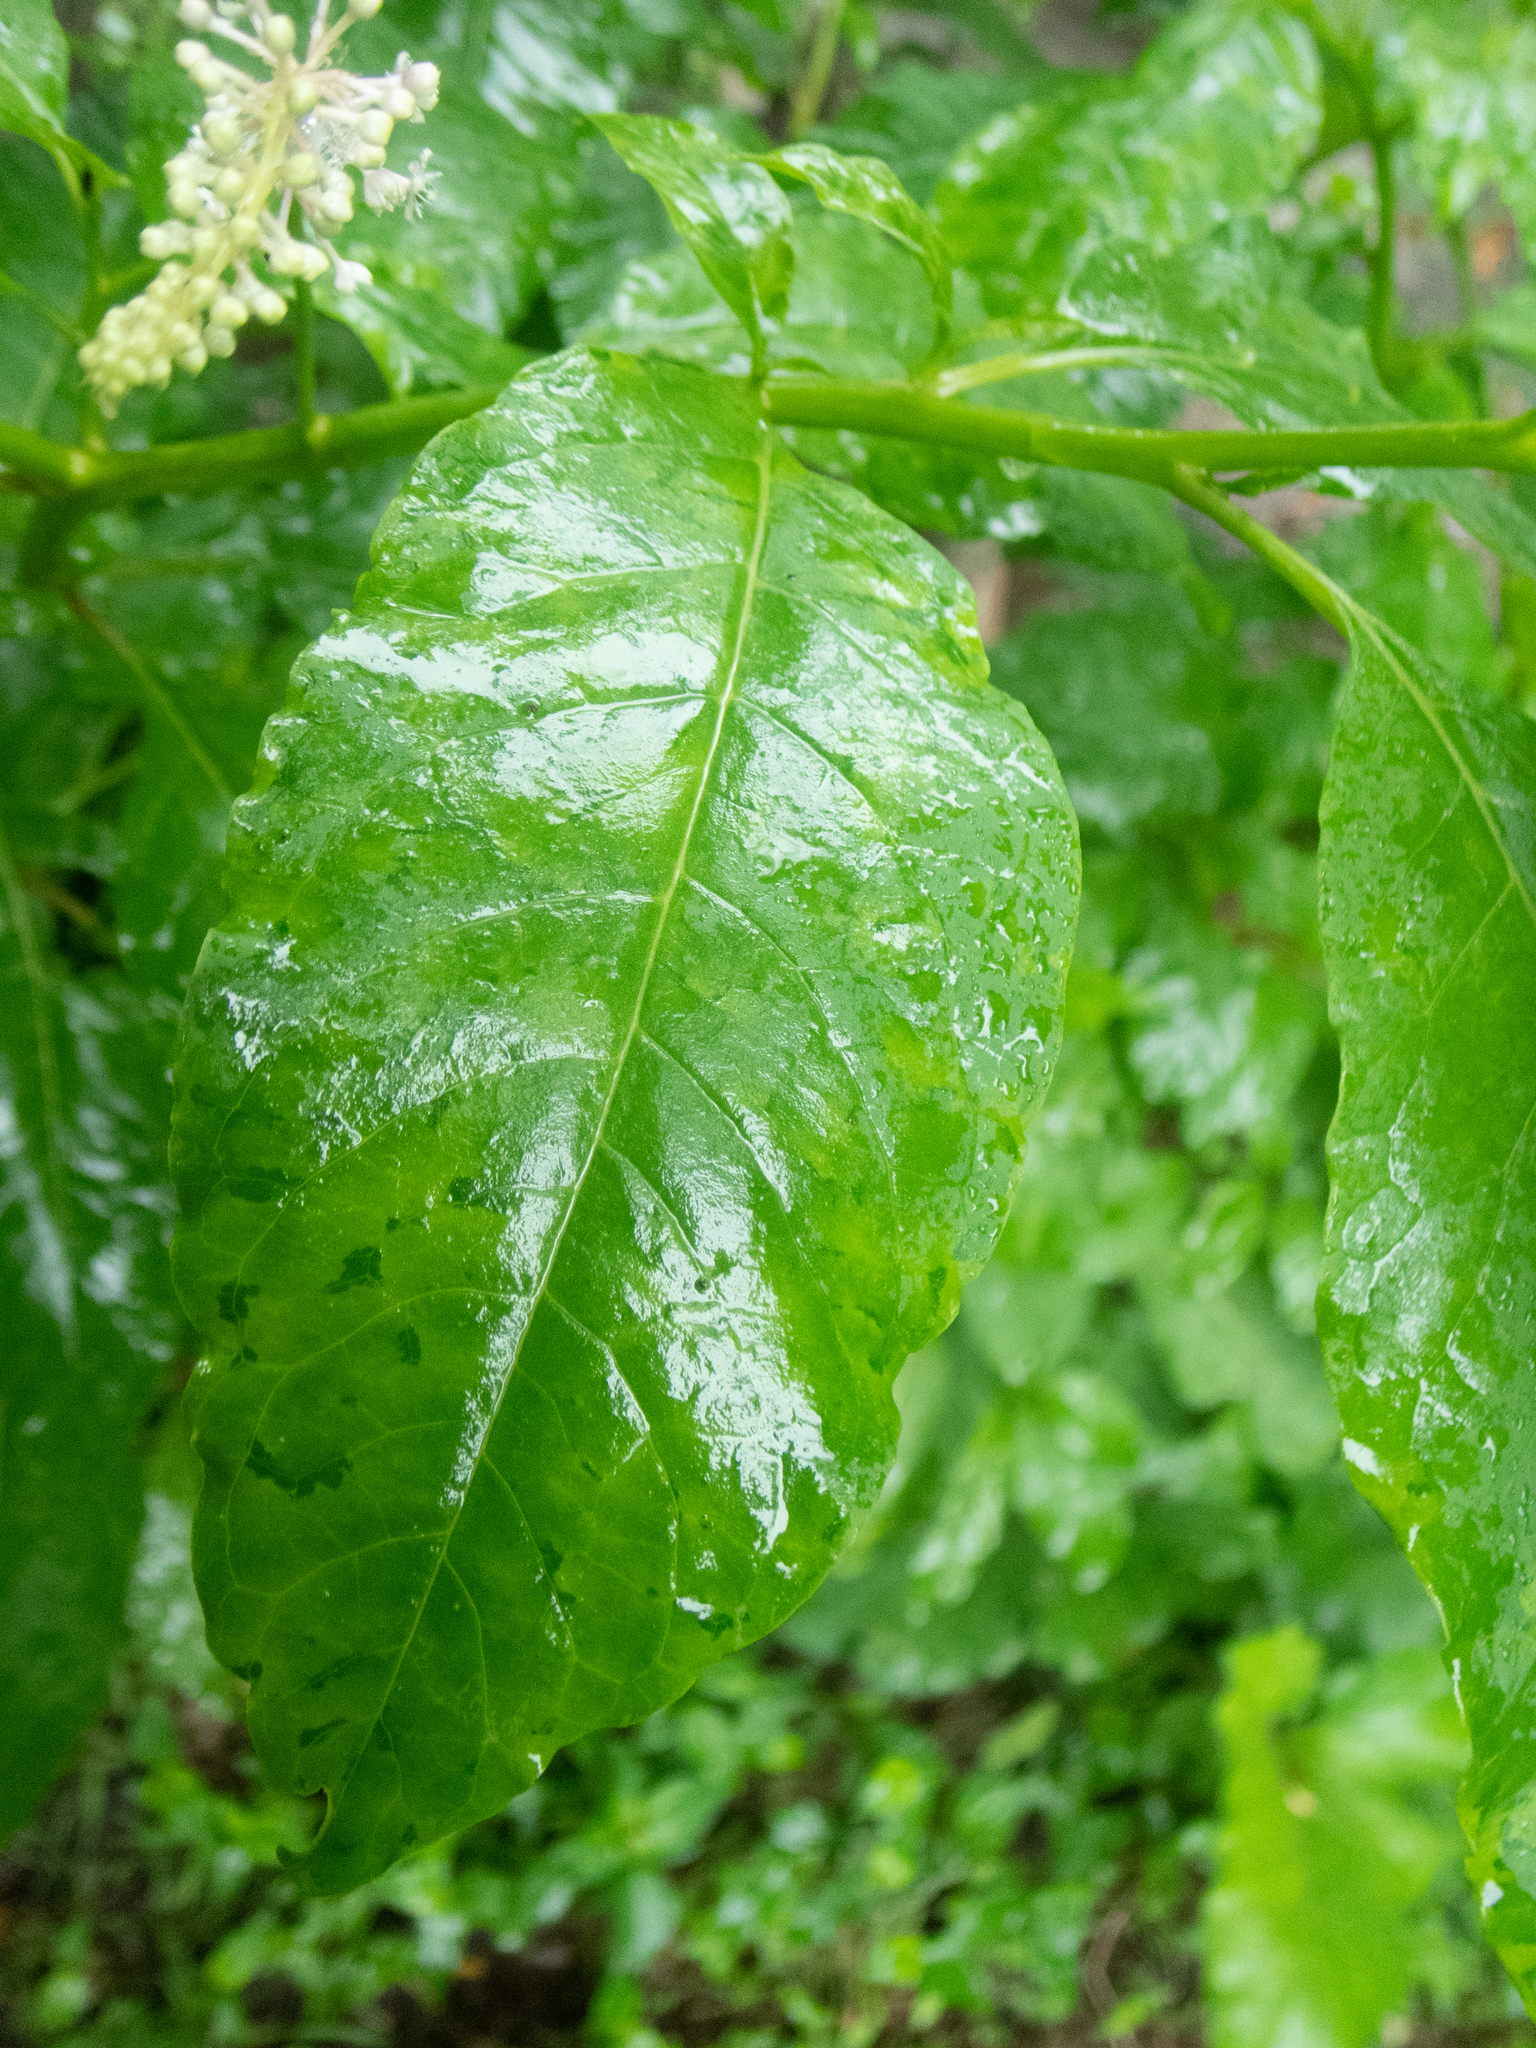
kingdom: Plantae
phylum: Tracheophyta
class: Magnoliopsida
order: Caryophyllales
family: Phytolaccaceae
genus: Phytolacca
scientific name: Phytolacca americana
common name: American pokeweed
